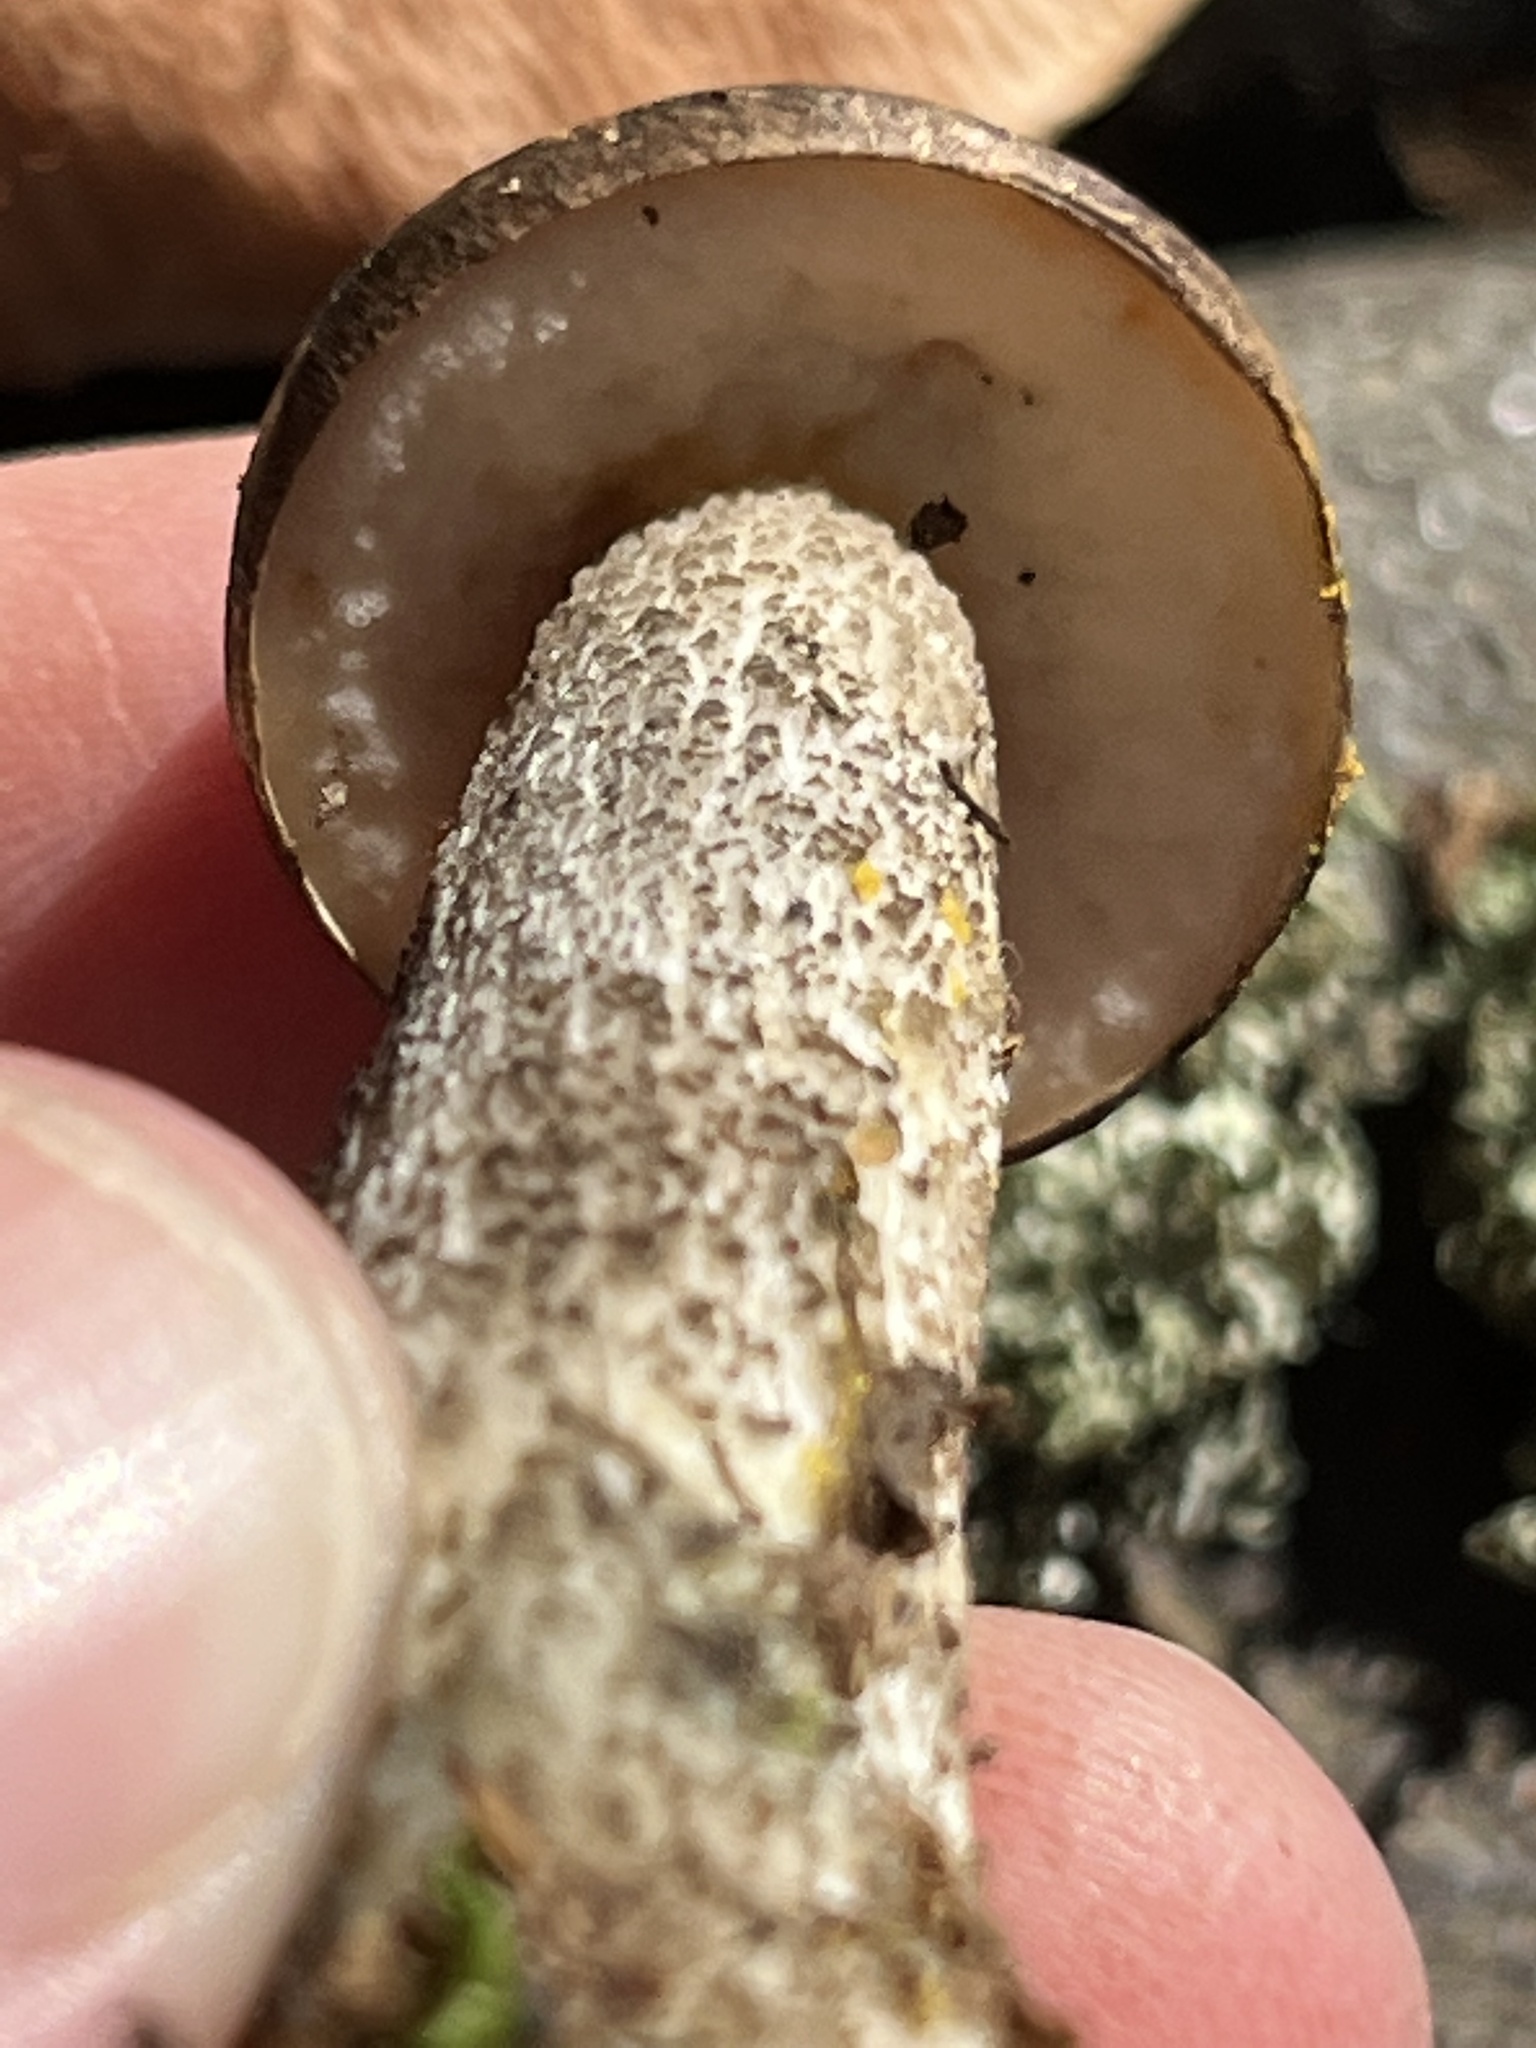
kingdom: Fungi
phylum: Basidiomycota
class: Agaricomycetes
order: Boletales
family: Boletaceae
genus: Leccinum
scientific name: Leccinum snellii
